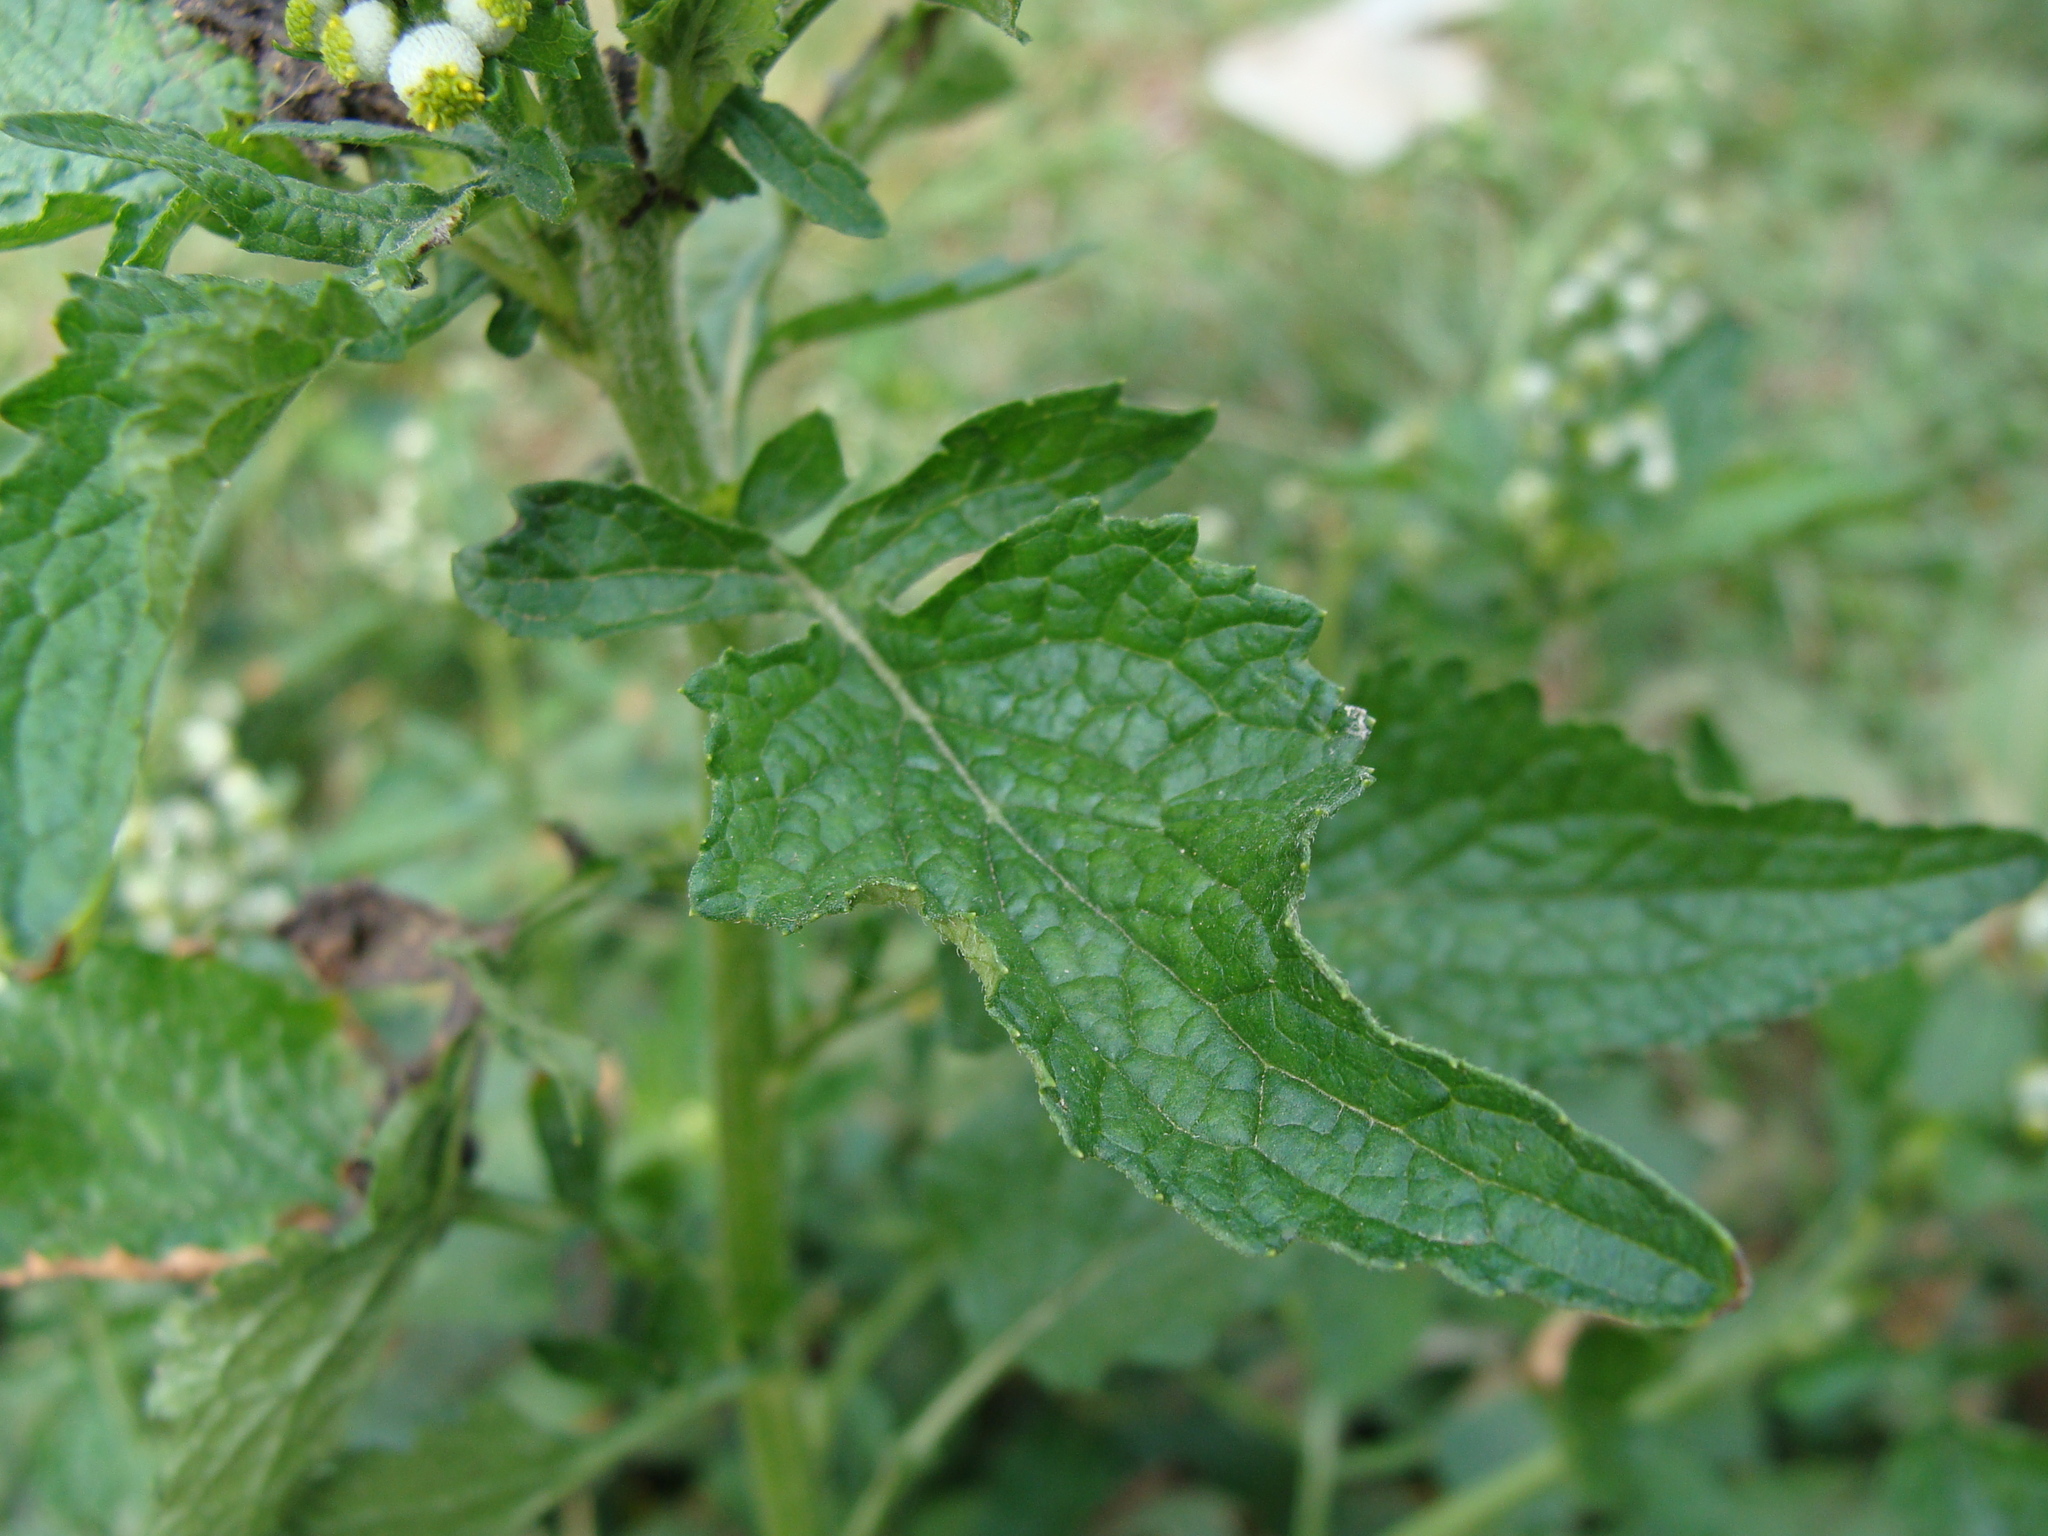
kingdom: Plantae
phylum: Tracheophyta
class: Magnoliopsida
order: Asterales
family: Asteraceae
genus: Dichrocephala
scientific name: Dichrocephala integrifolia
